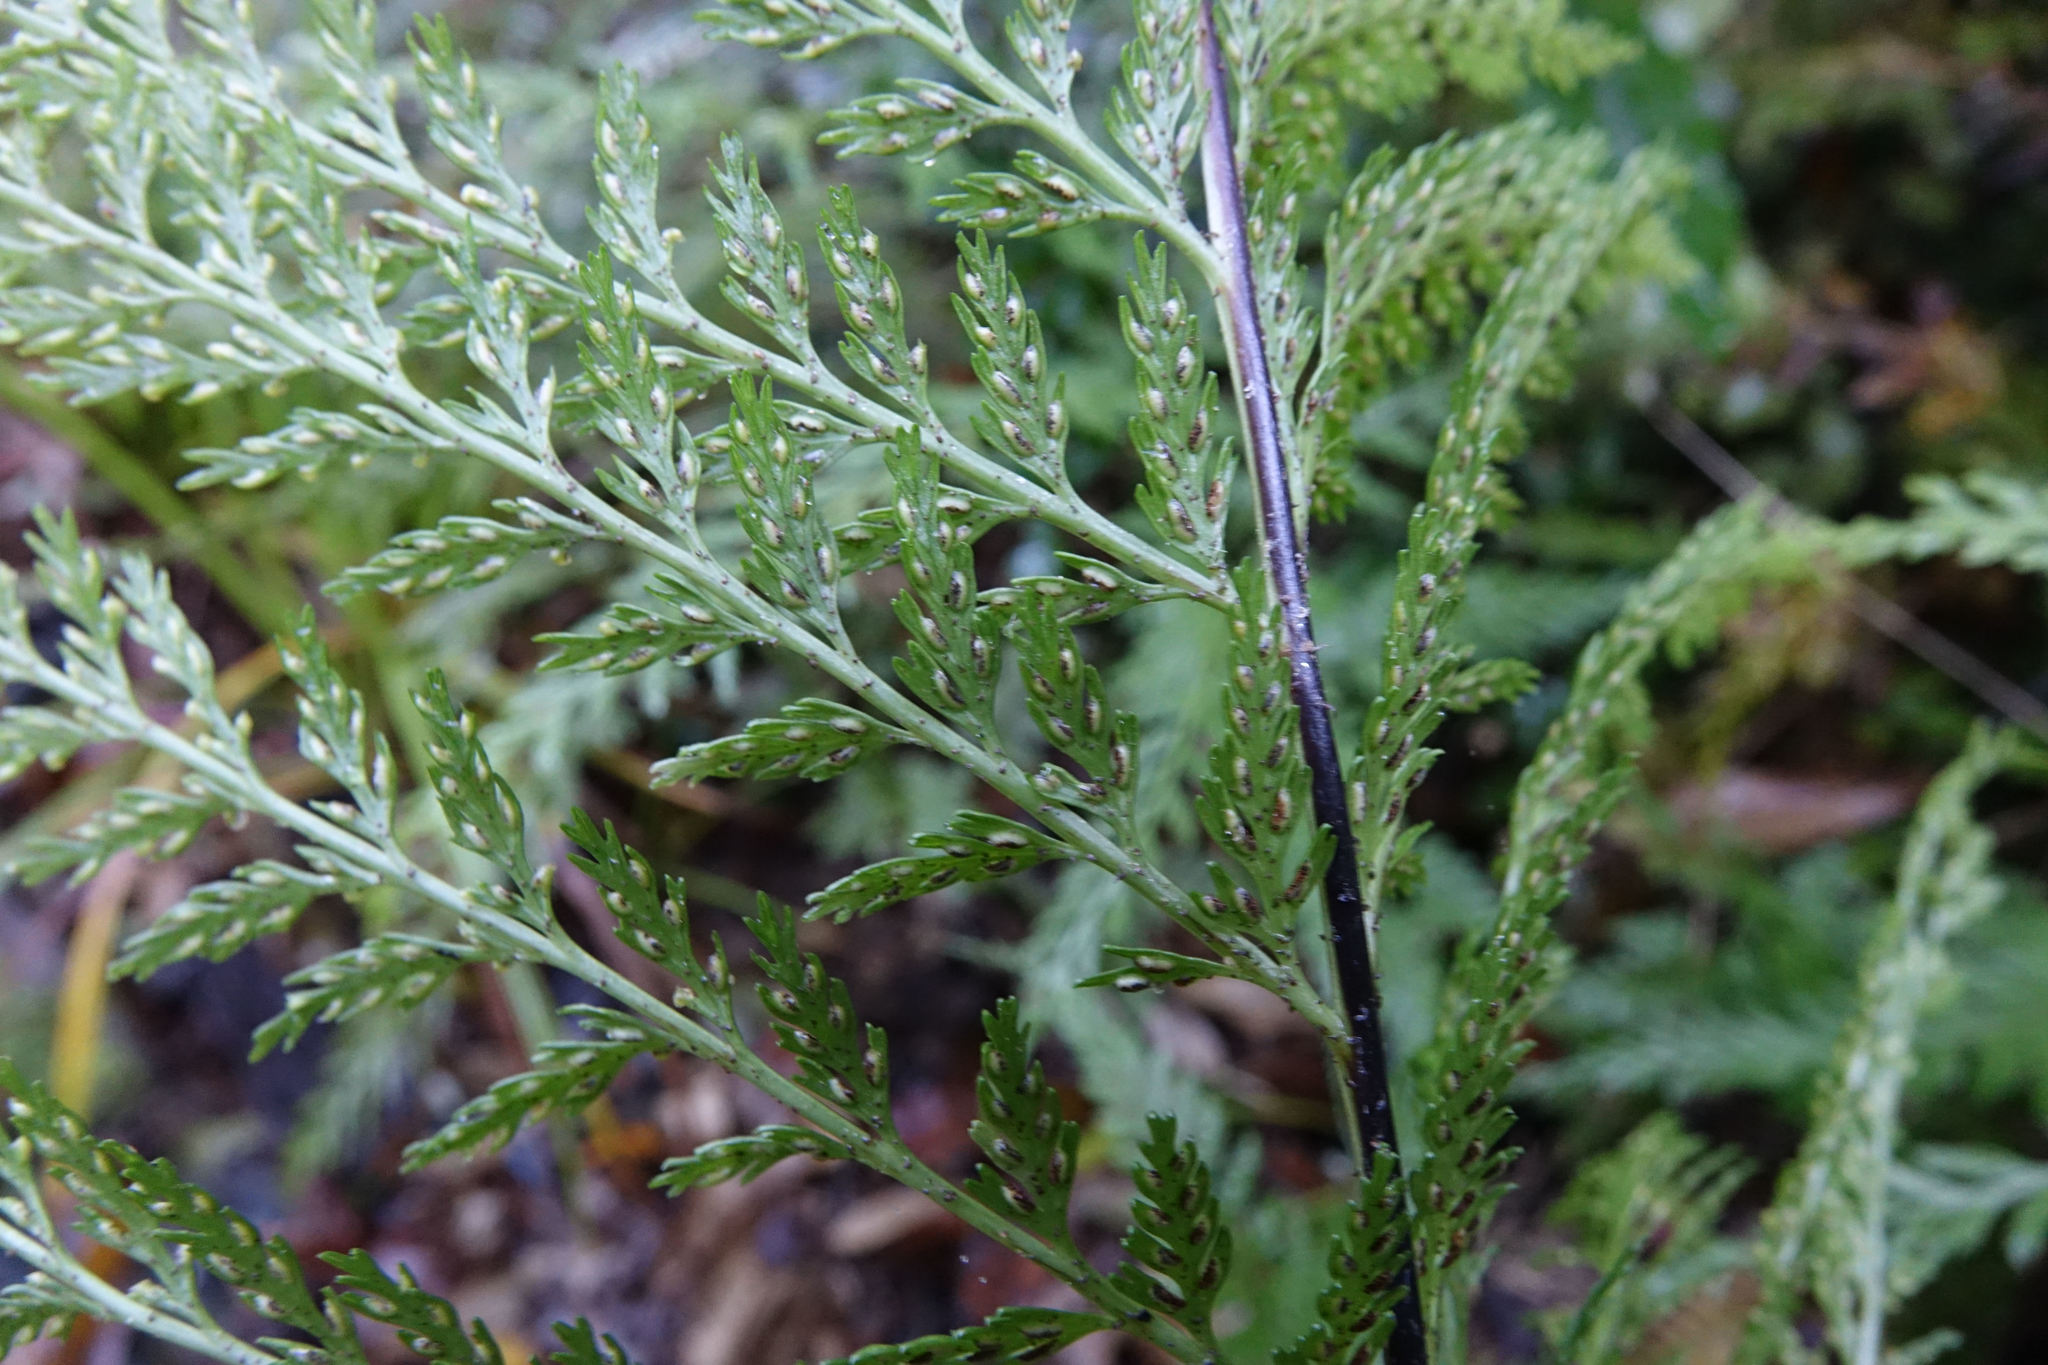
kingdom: Plantae
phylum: Tracheophyta
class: Polypodiopsida
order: Polypodiales
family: Aspleniaceae
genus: Asplenium
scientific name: Asplenium
